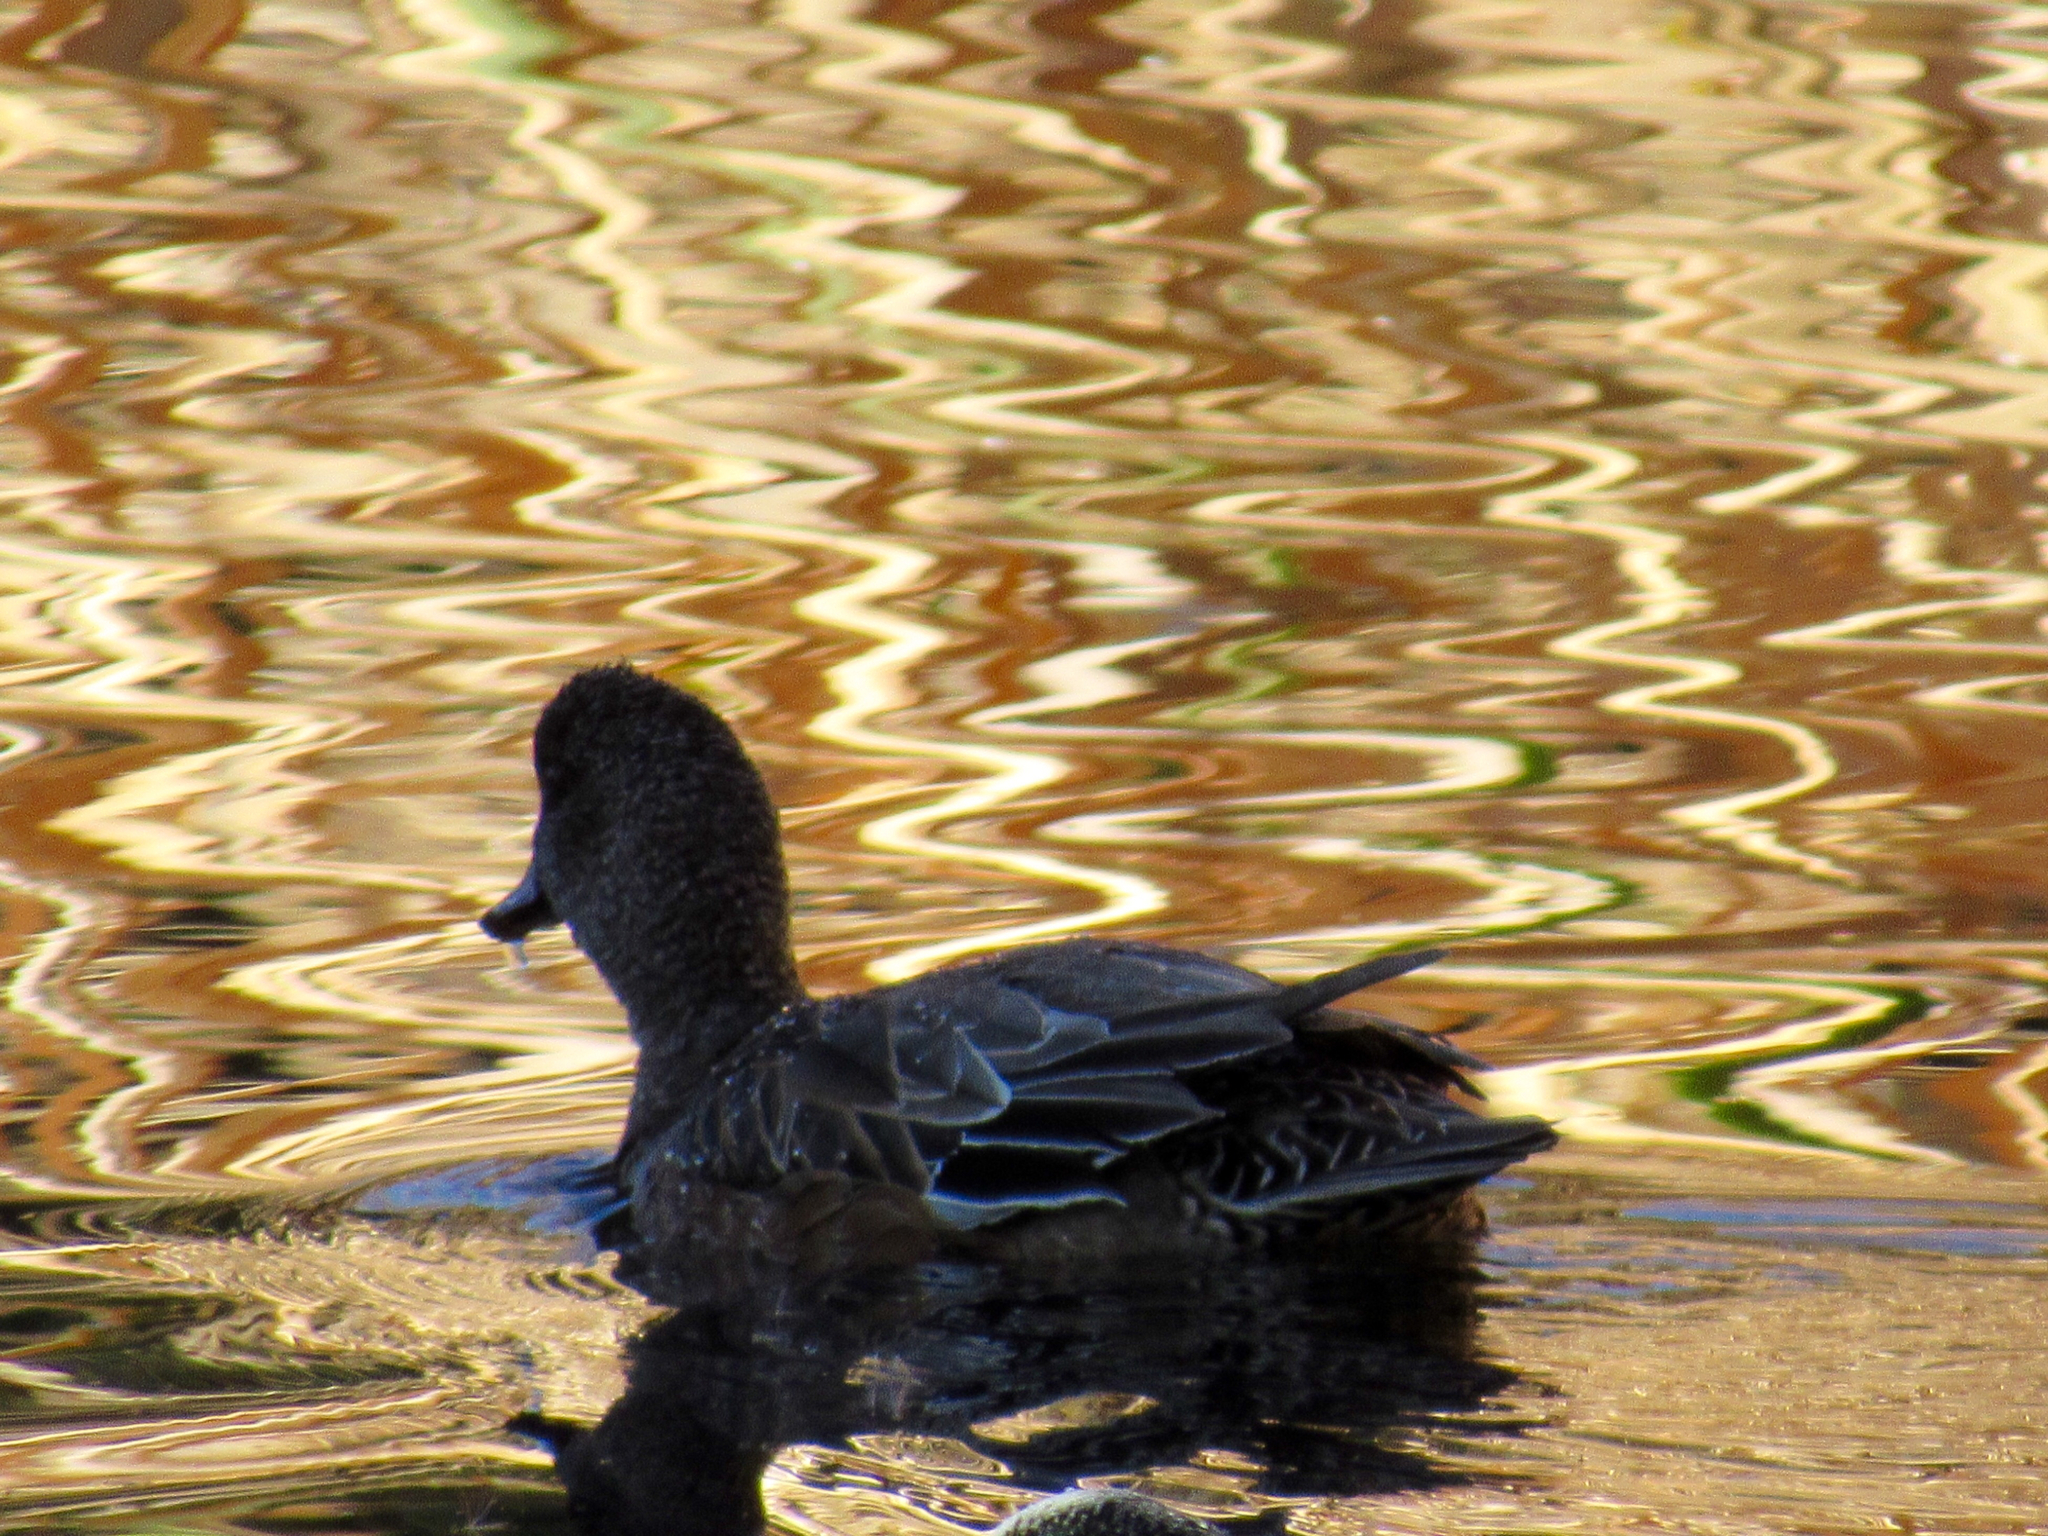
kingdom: Animalia
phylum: Chordata
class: Aves
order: Anseriformes
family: Anatidae
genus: Mareca
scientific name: Mareca americana
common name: American wigeon
